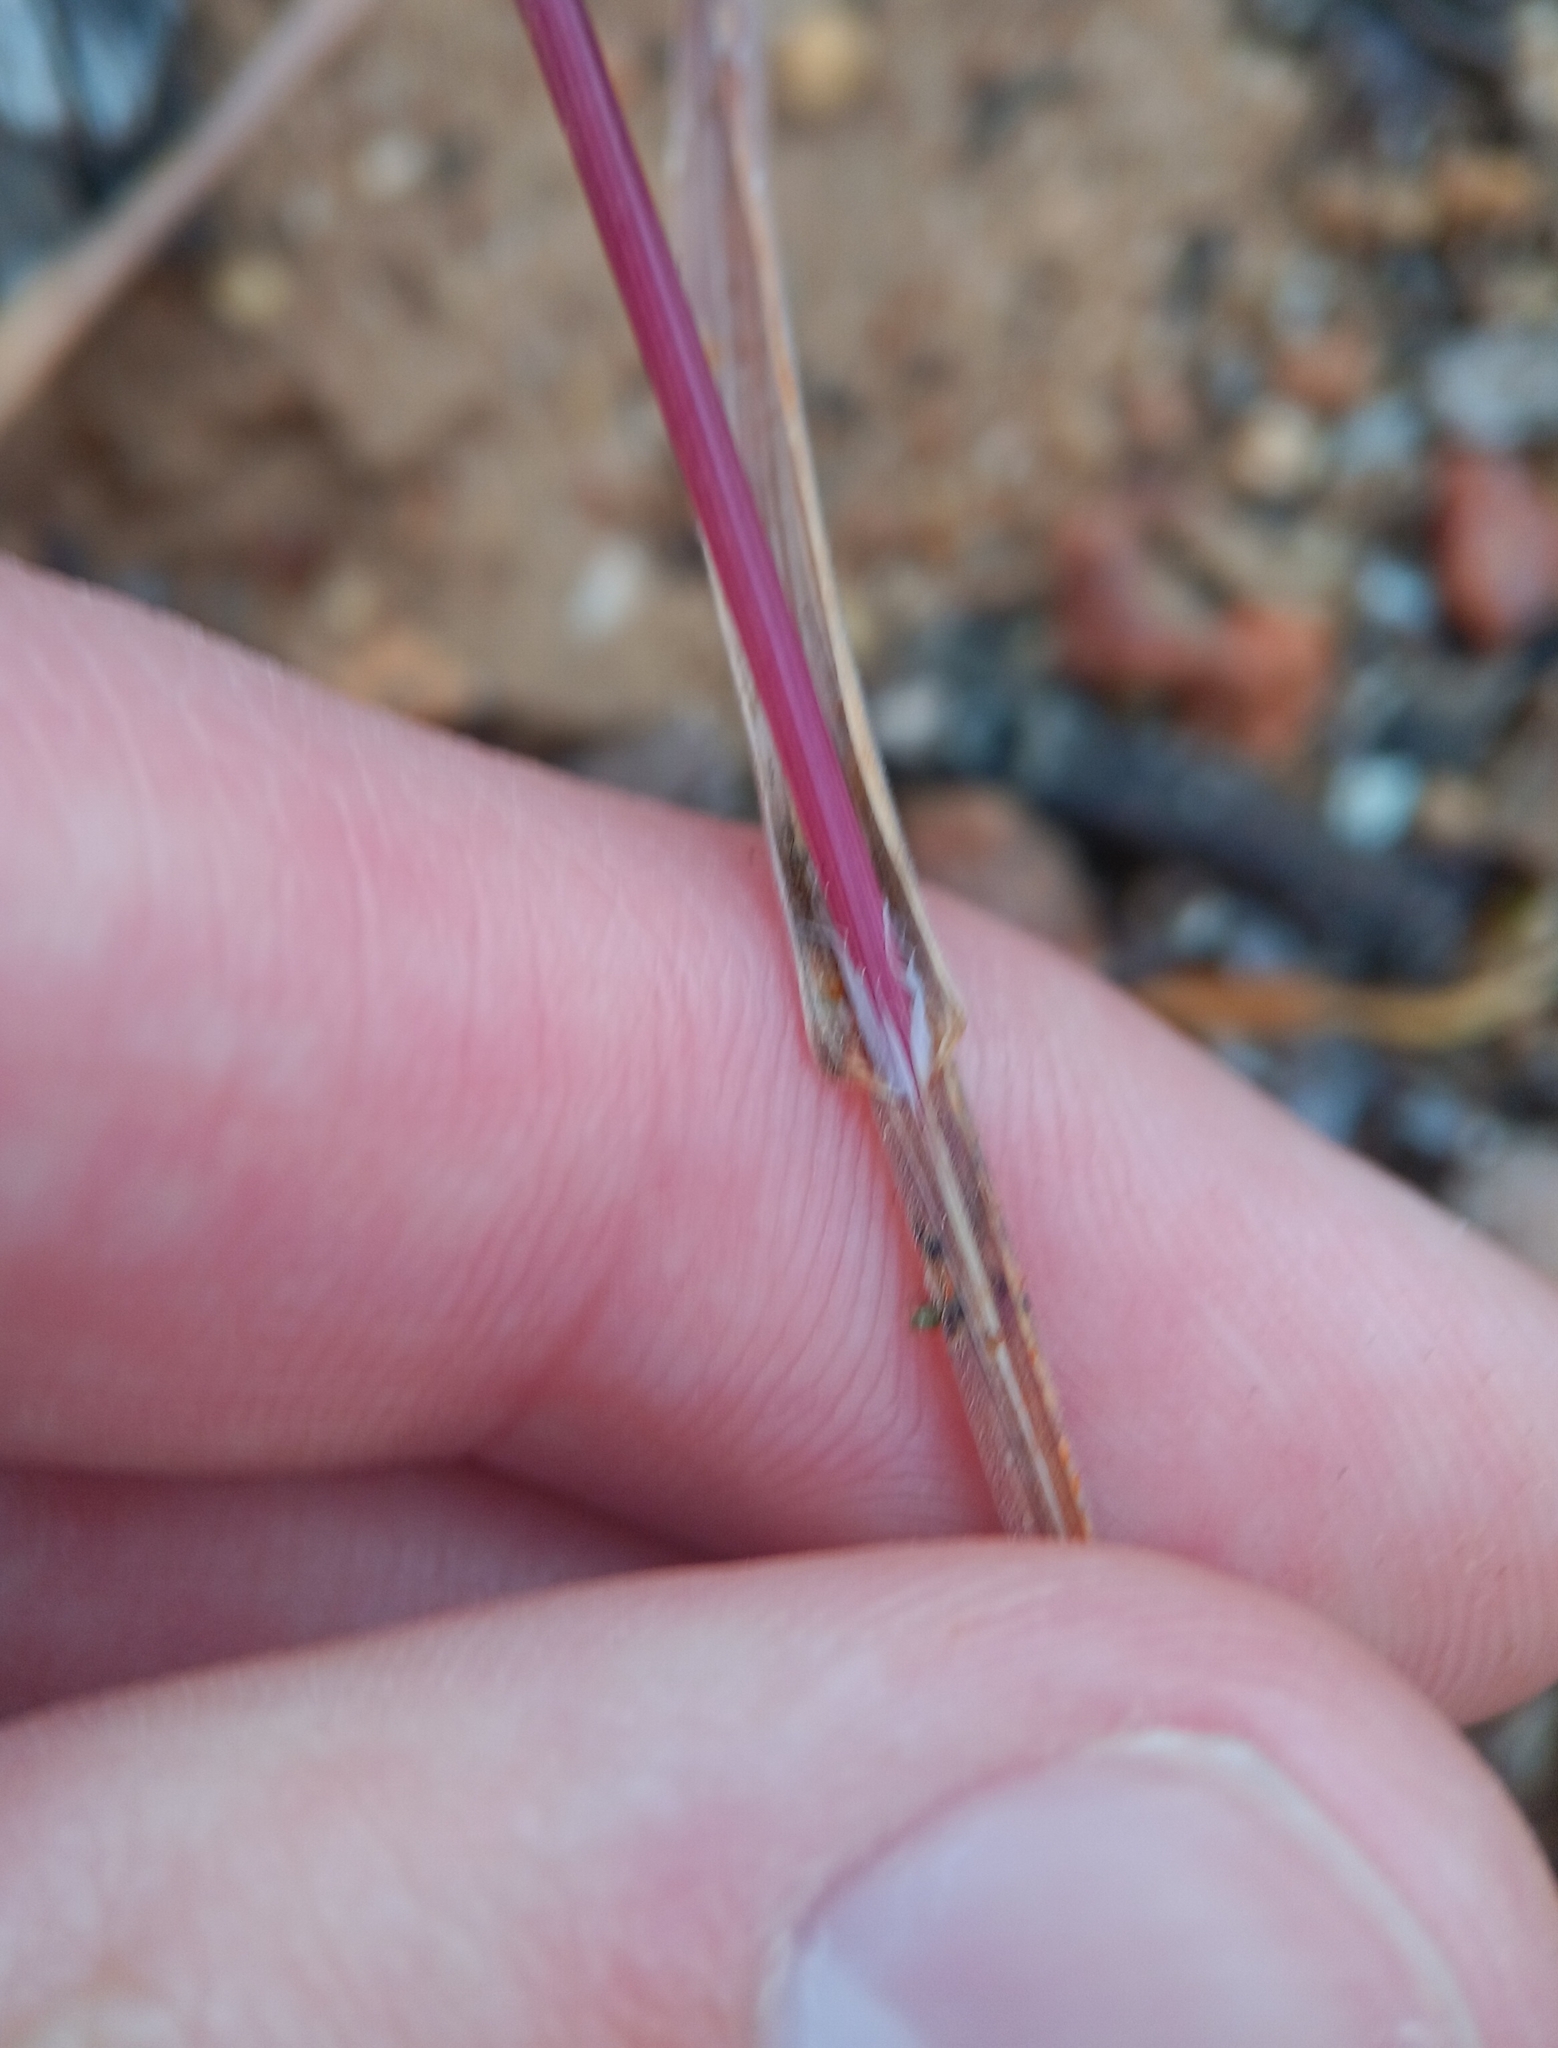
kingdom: Plantae
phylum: Tracheophyta
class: Liliopsida
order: Poales
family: Poaceae
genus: Bromus
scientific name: Bromus rubens
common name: Red brome
